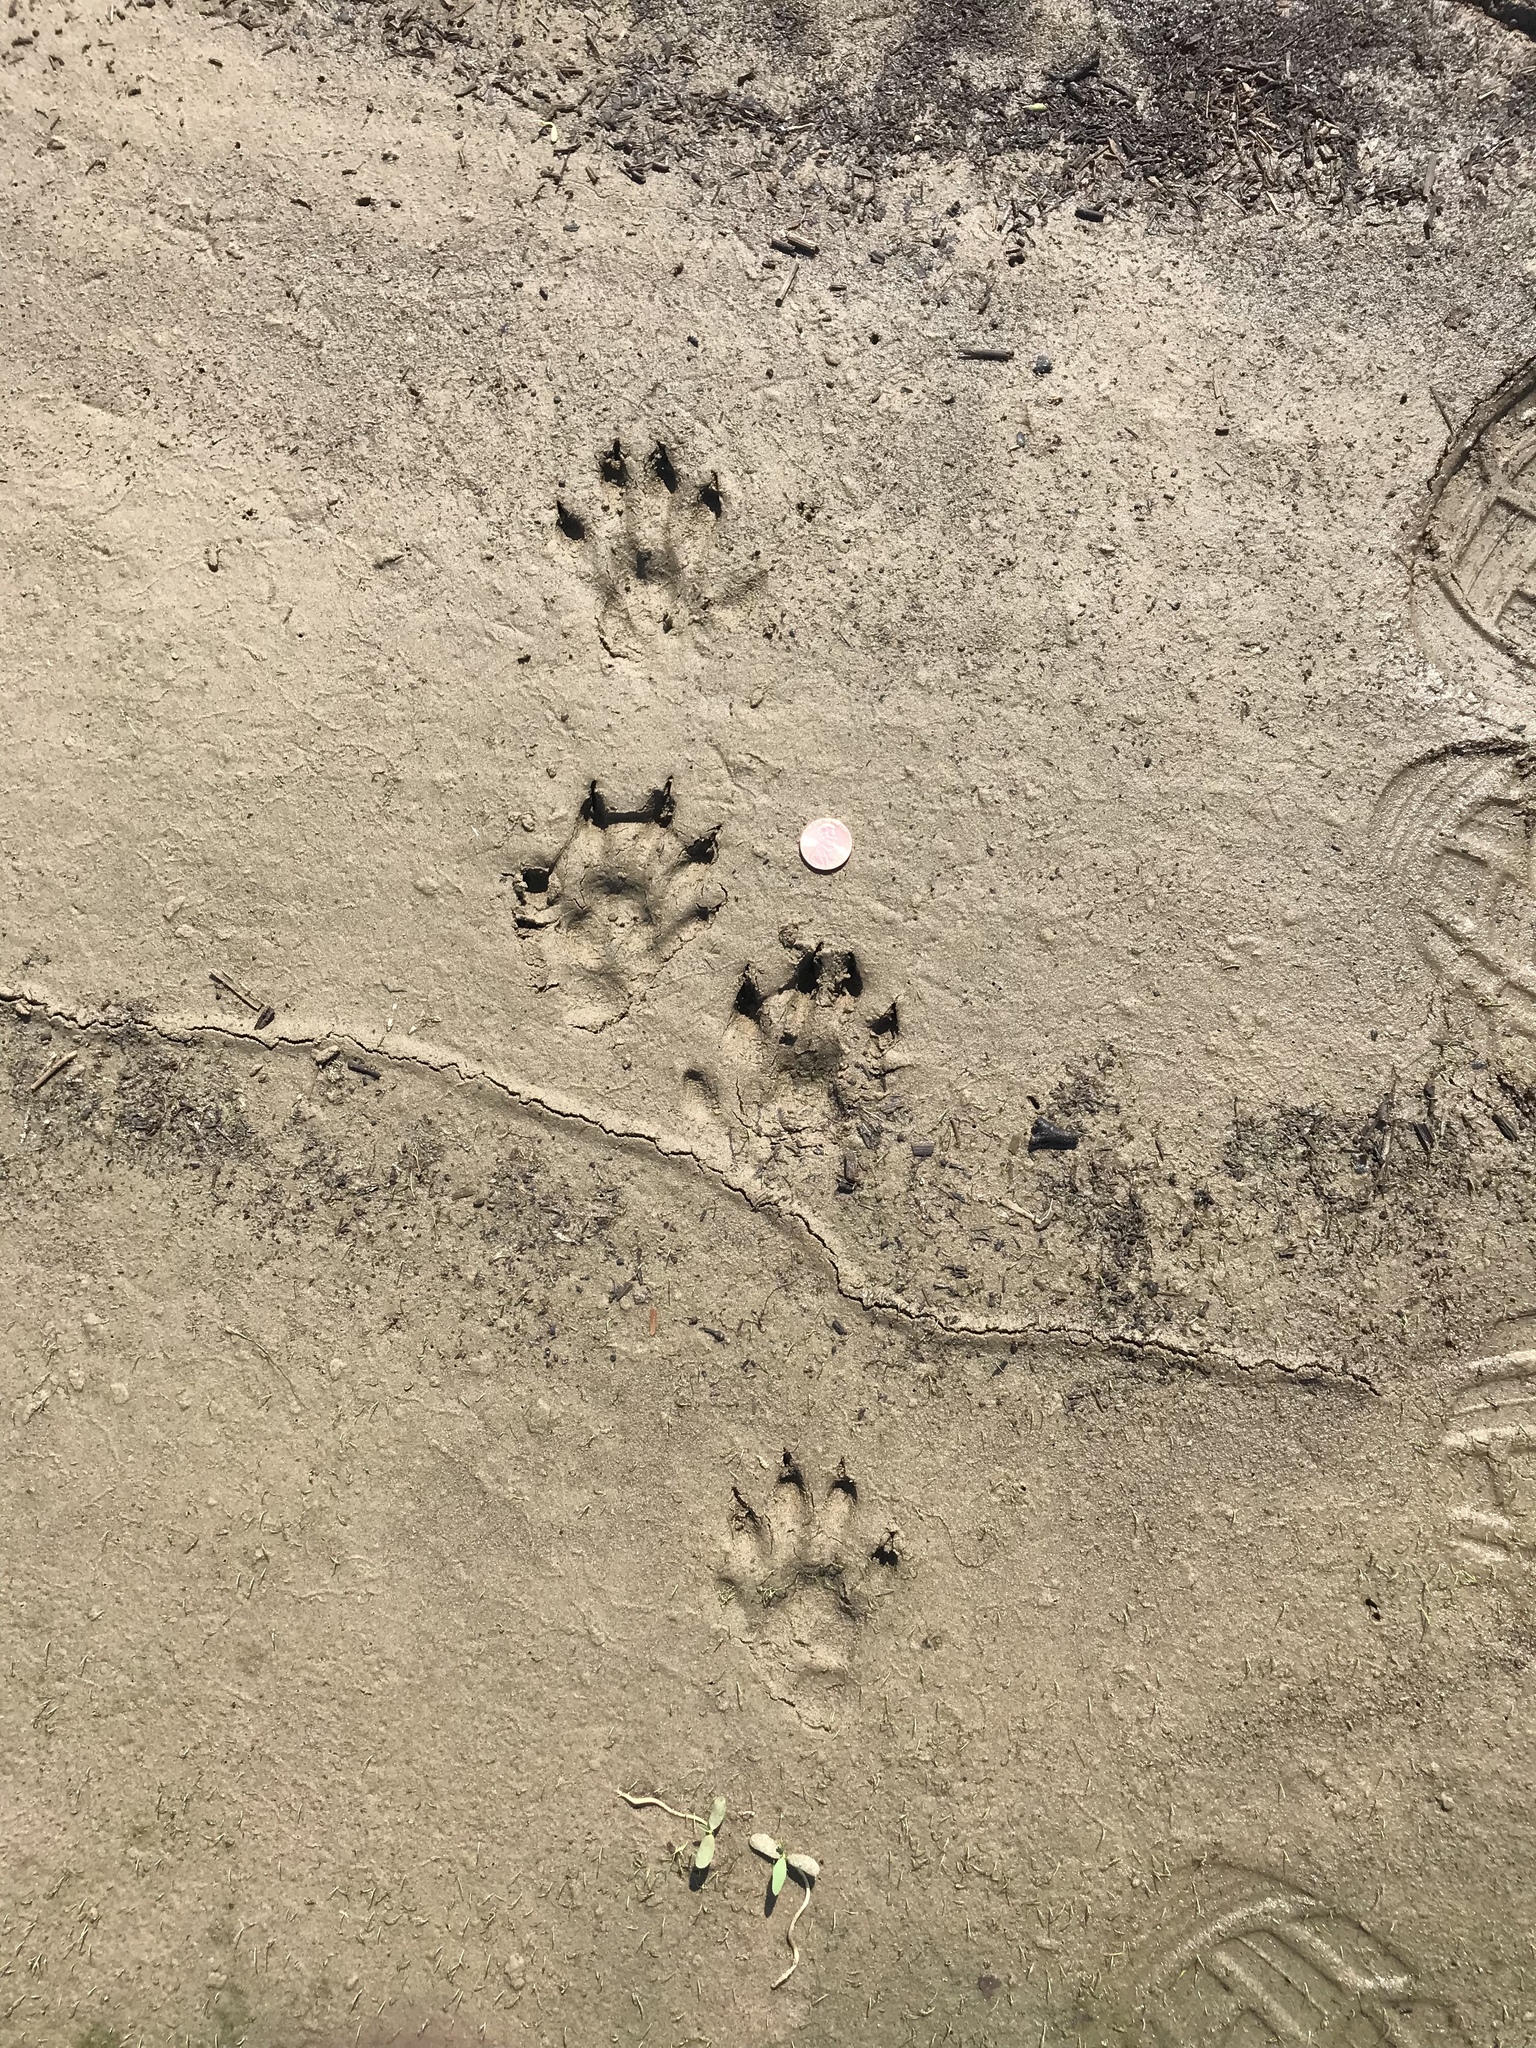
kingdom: Animalia
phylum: Chordata
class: Mammalia
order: Carnivora
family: Mustelidae
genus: Lontra
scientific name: Lontra canadensis
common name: North american river otter
